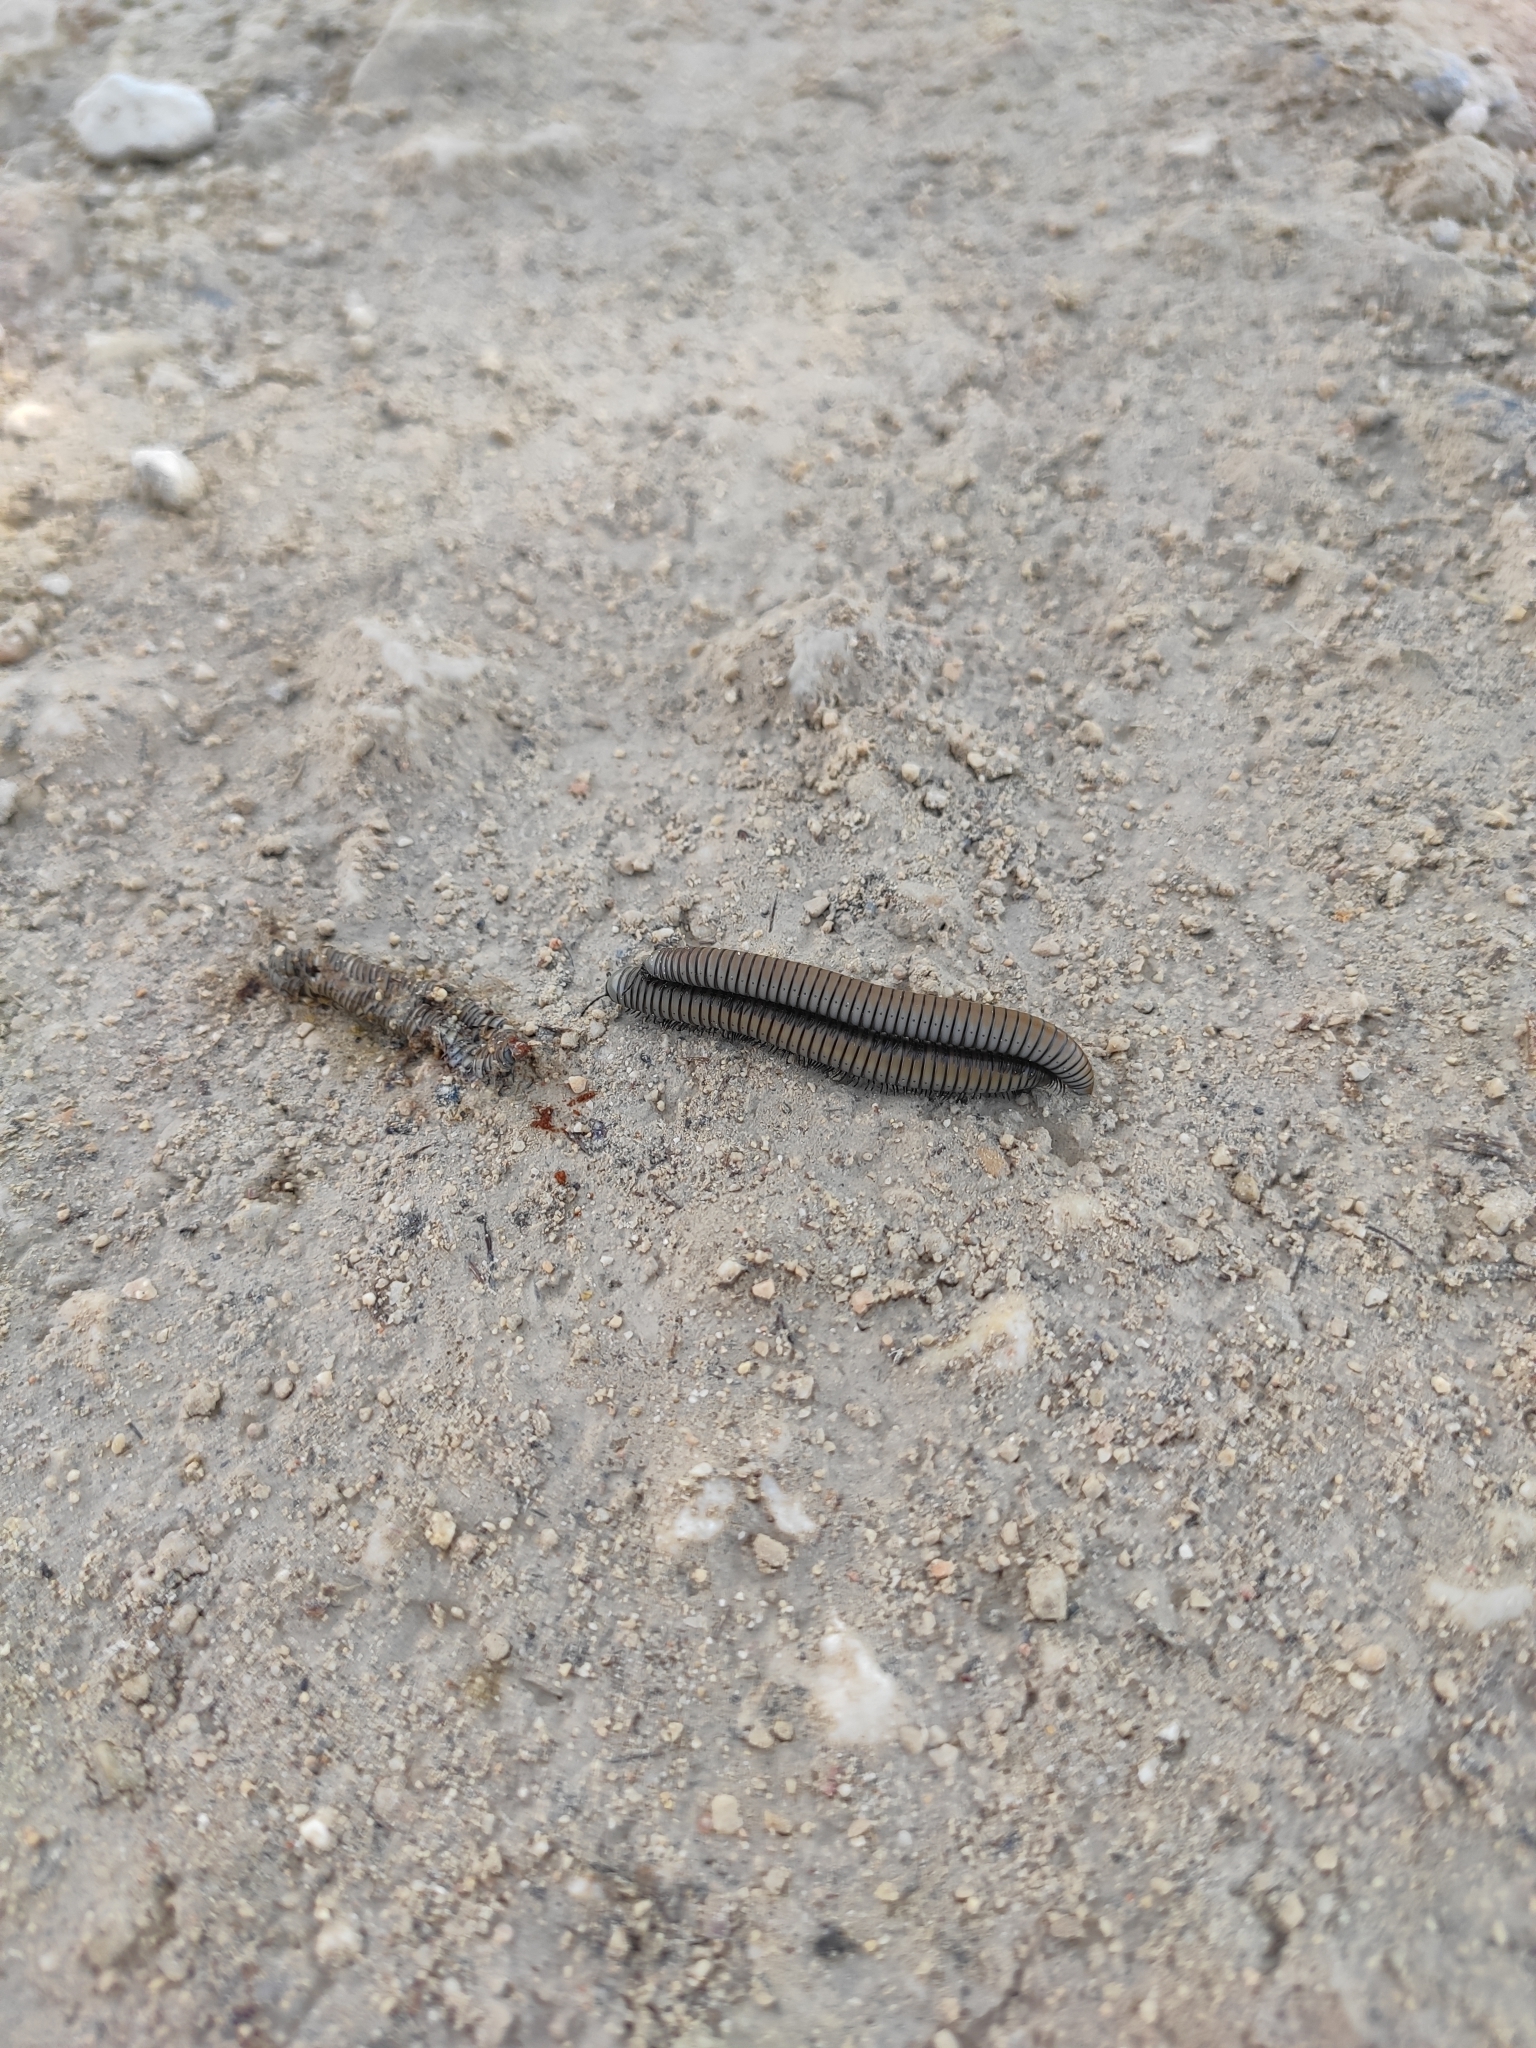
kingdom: Animalia
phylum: Arthropoda
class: Diplopoda
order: Julida
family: Julidae
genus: Ommatoiulus
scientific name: Ommatoiulus rutilans
